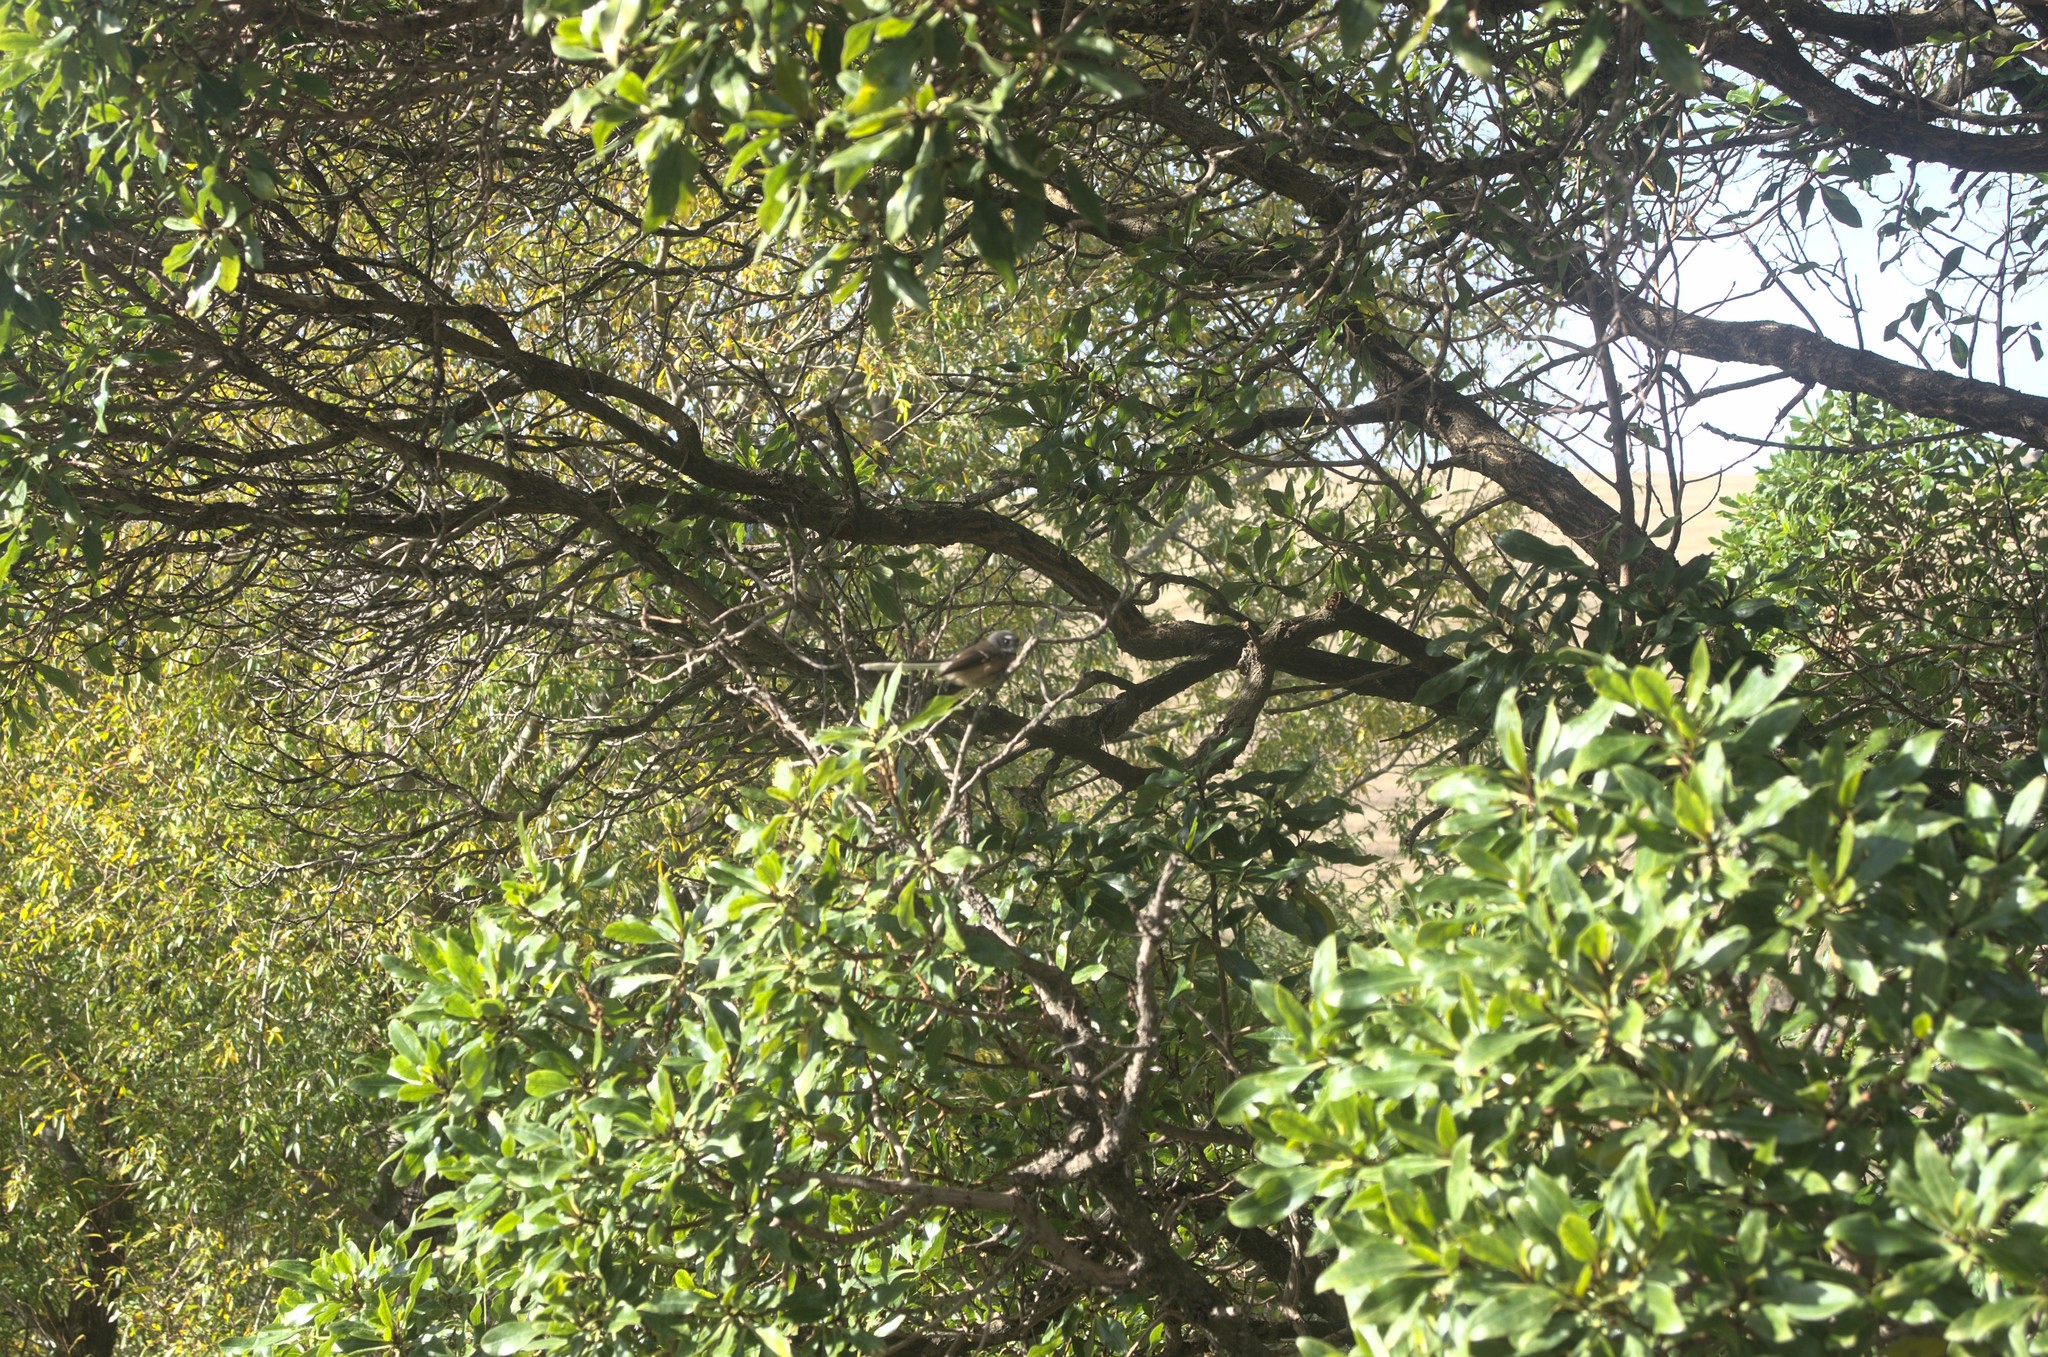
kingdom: Plantae
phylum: Tracheophyta
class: Magnoliopsida
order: Lamiales
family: Scrophulariaceae
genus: Myoporum
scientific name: Myoporum laetum
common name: Ngaio tree
